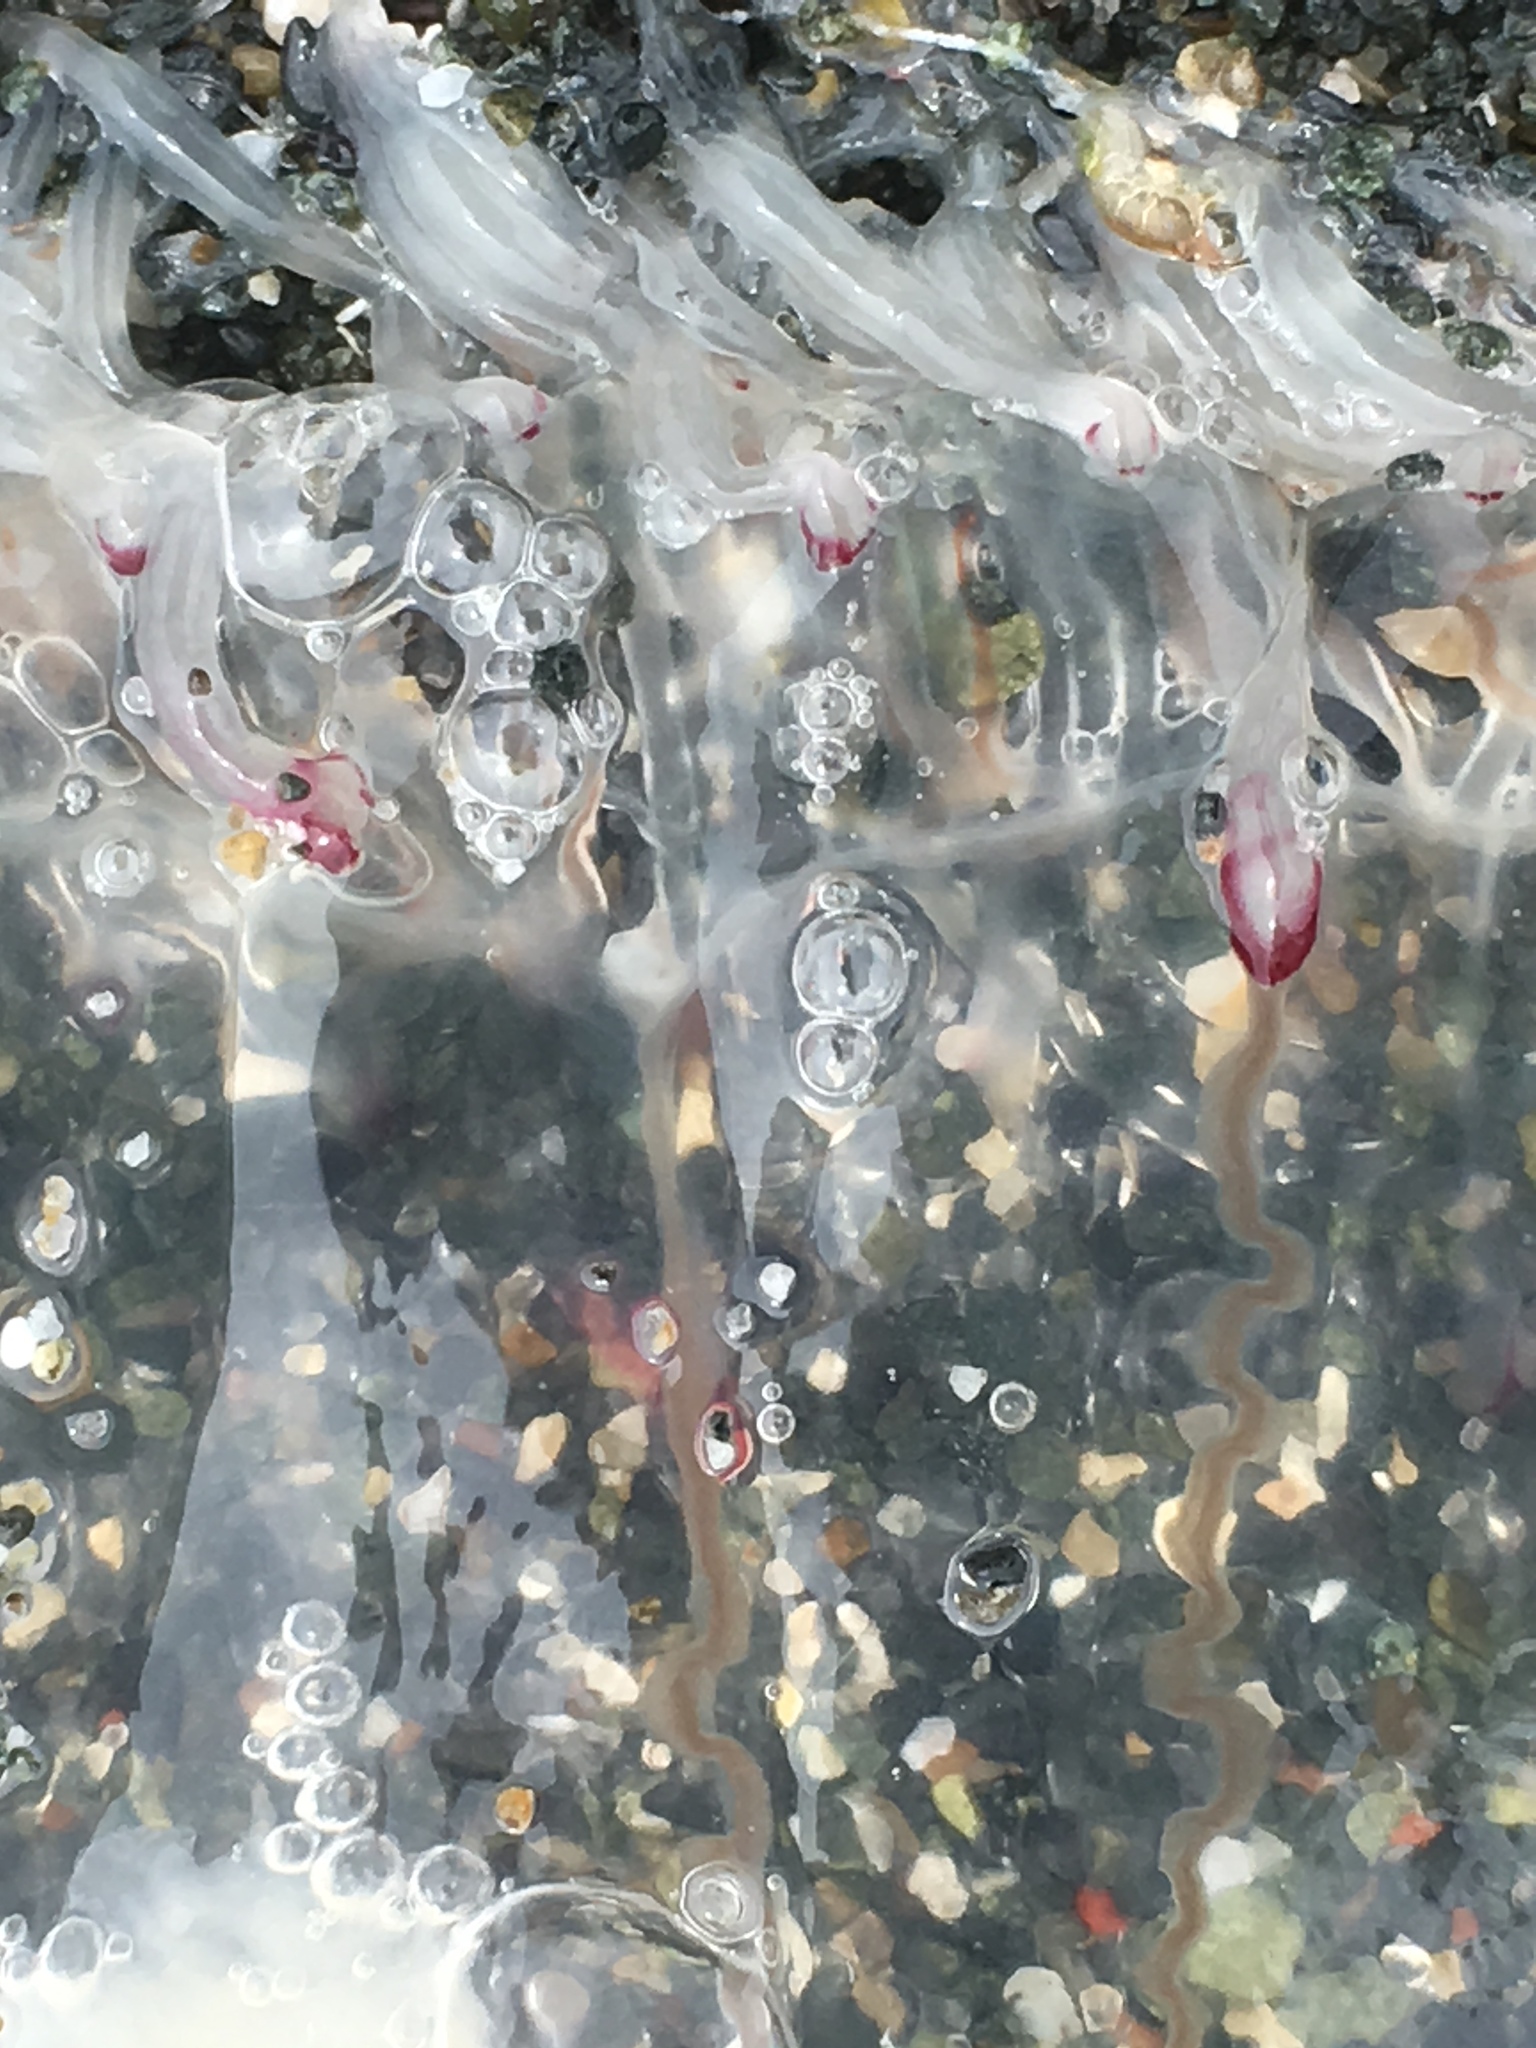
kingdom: Animalia
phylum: Cnidaria
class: Hydrozoa
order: Anthoathecata
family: Corynidae
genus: Scrippsia
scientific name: Scrippsia pacifica
